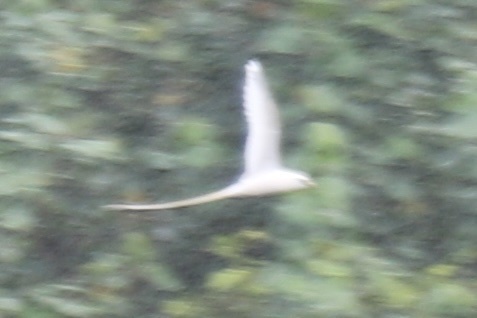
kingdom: Animalia
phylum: Chordata
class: Aves
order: Phaethontiformes
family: Phaethontidae
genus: Phaethon
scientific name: Phaethon lepturus
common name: White-tailed tropicbird
